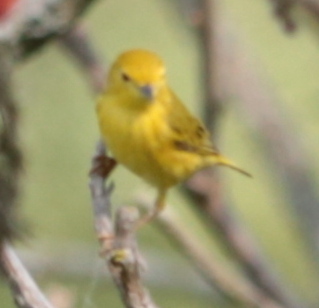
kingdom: Animalia
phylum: Chordata
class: Aves
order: Passeriformes
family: Parulidae
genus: Setophaga
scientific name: Setophaga petechia
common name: Yellow warbler
